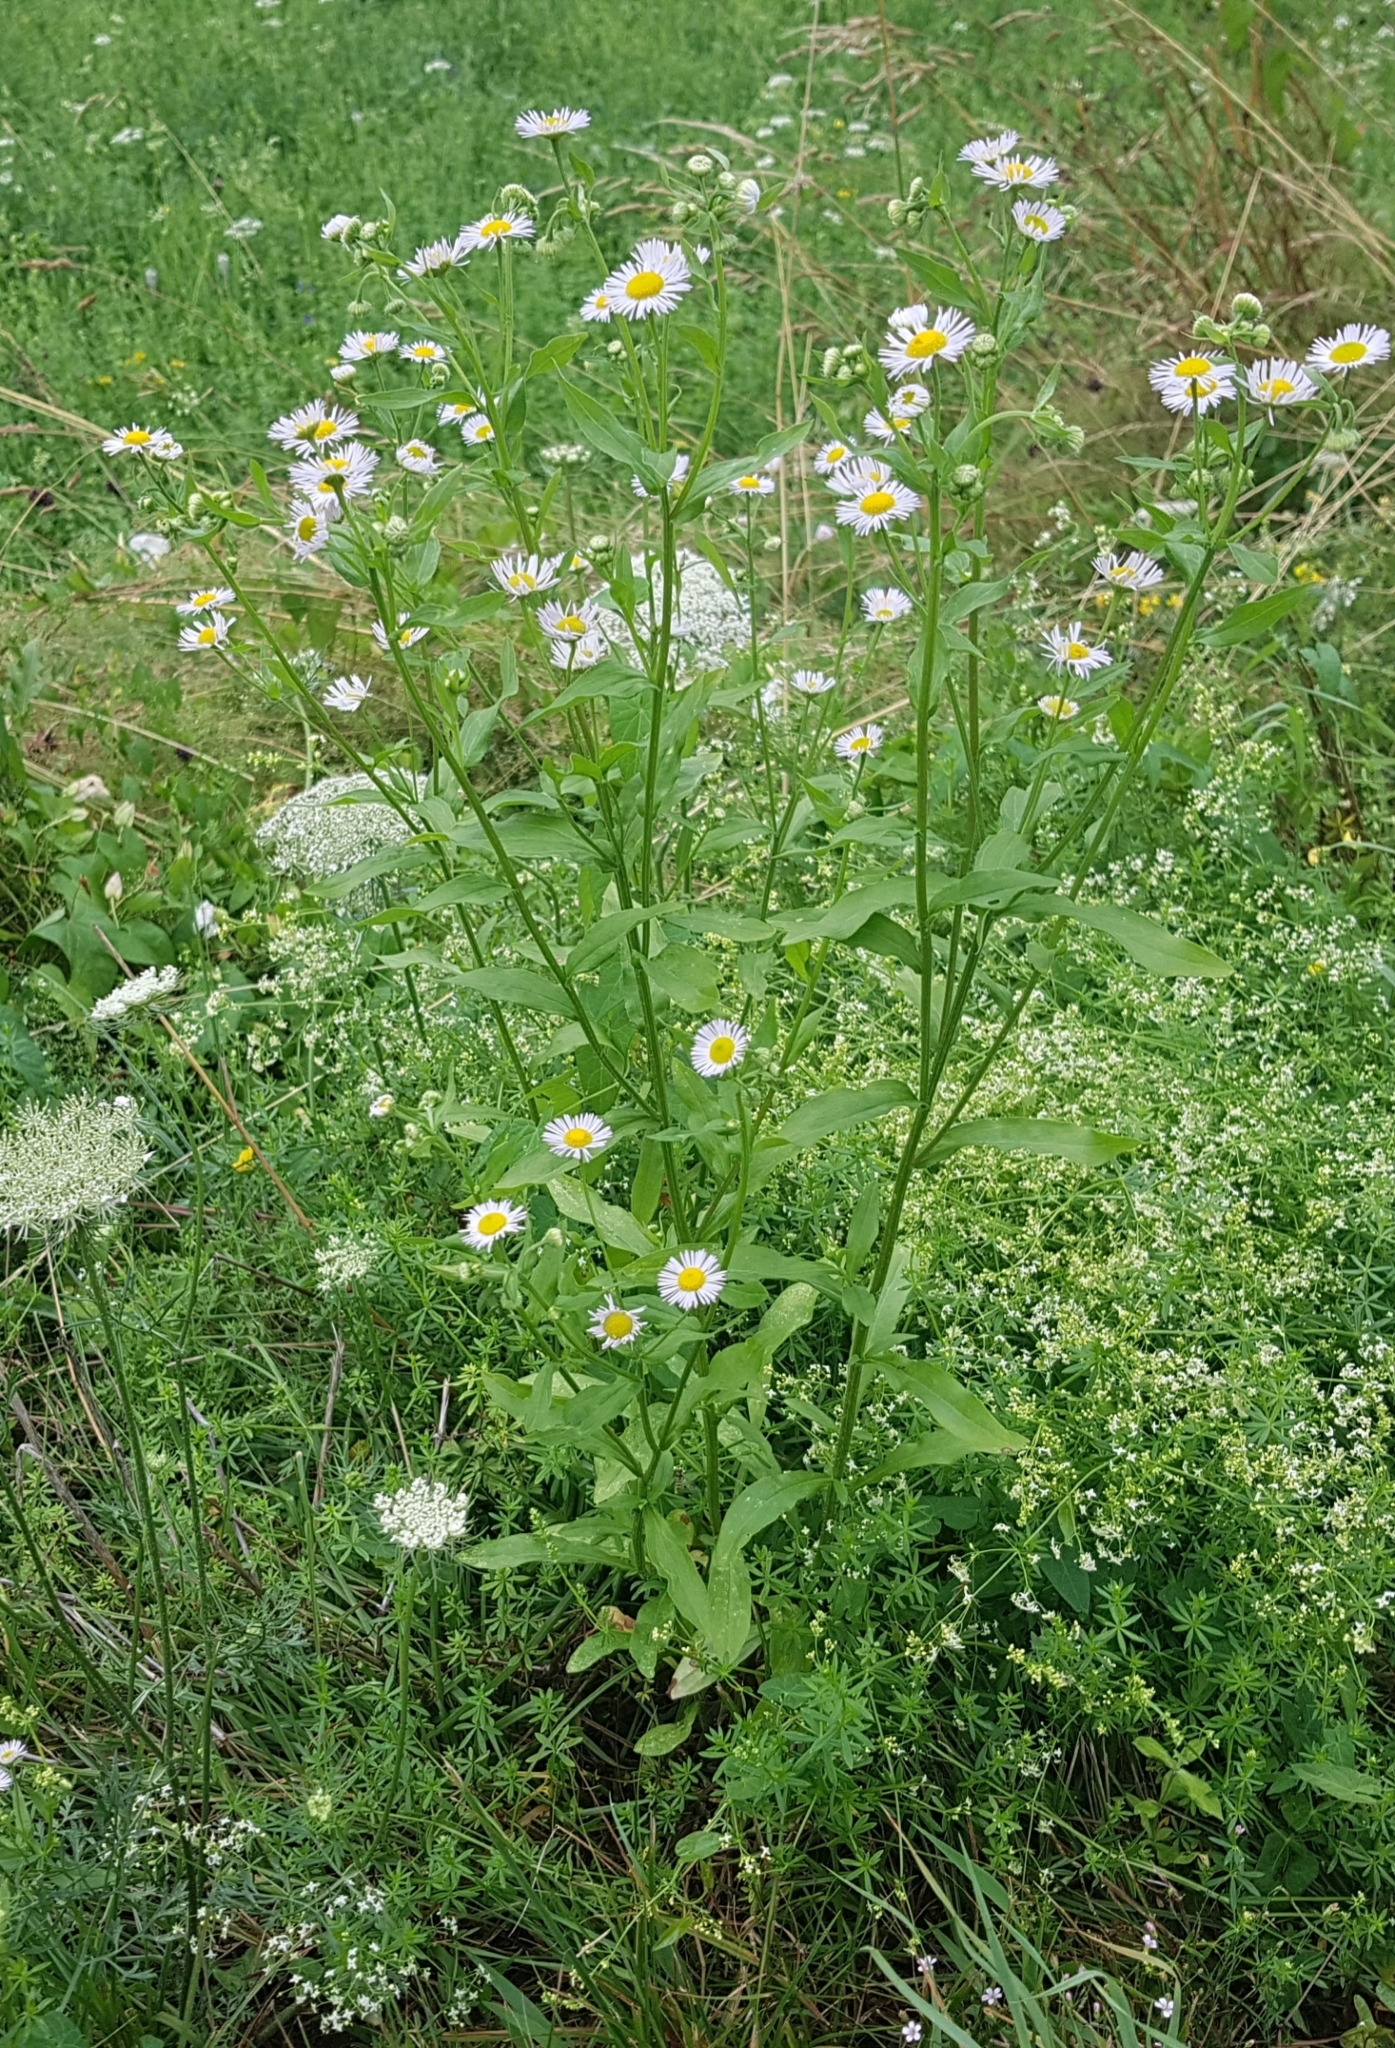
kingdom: Plantae
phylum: Tracheophyta
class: Magnoliopsida
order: Asterales
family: Asteraceae
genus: Erigeron
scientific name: Erigeron annuus
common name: Tall fleabane
